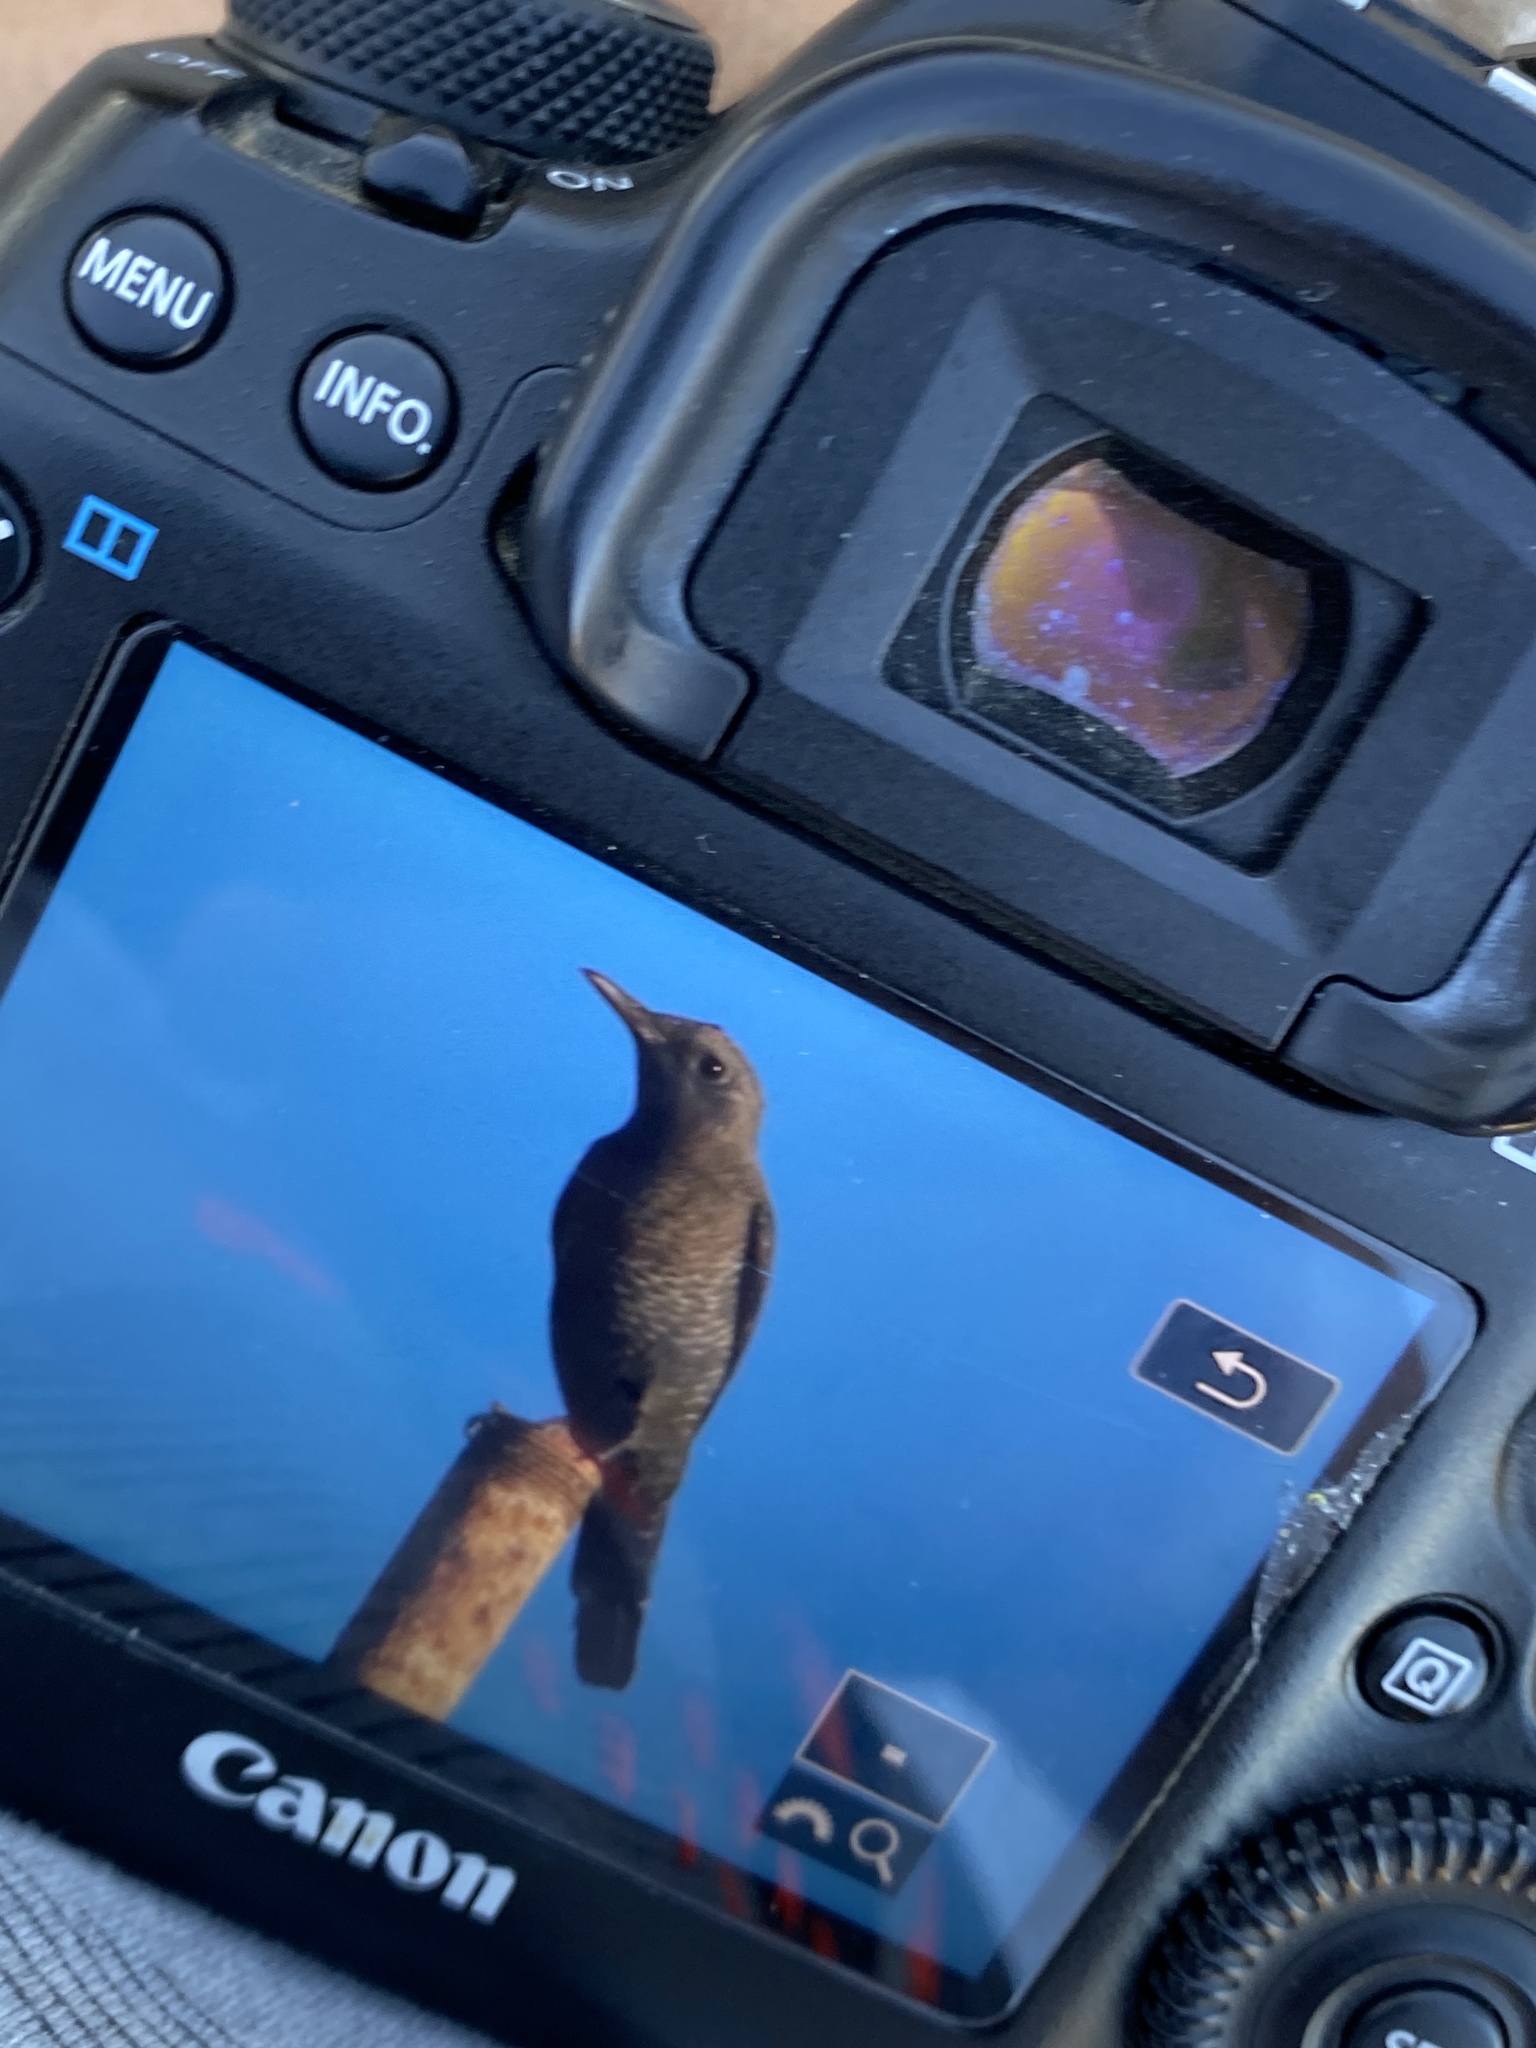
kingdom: Animalia
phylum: Chordata
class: Aves
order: Passeriformes
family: Muscicapidae
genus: Monticola
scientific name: Monticola solitarius
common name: Blue rock thrush
